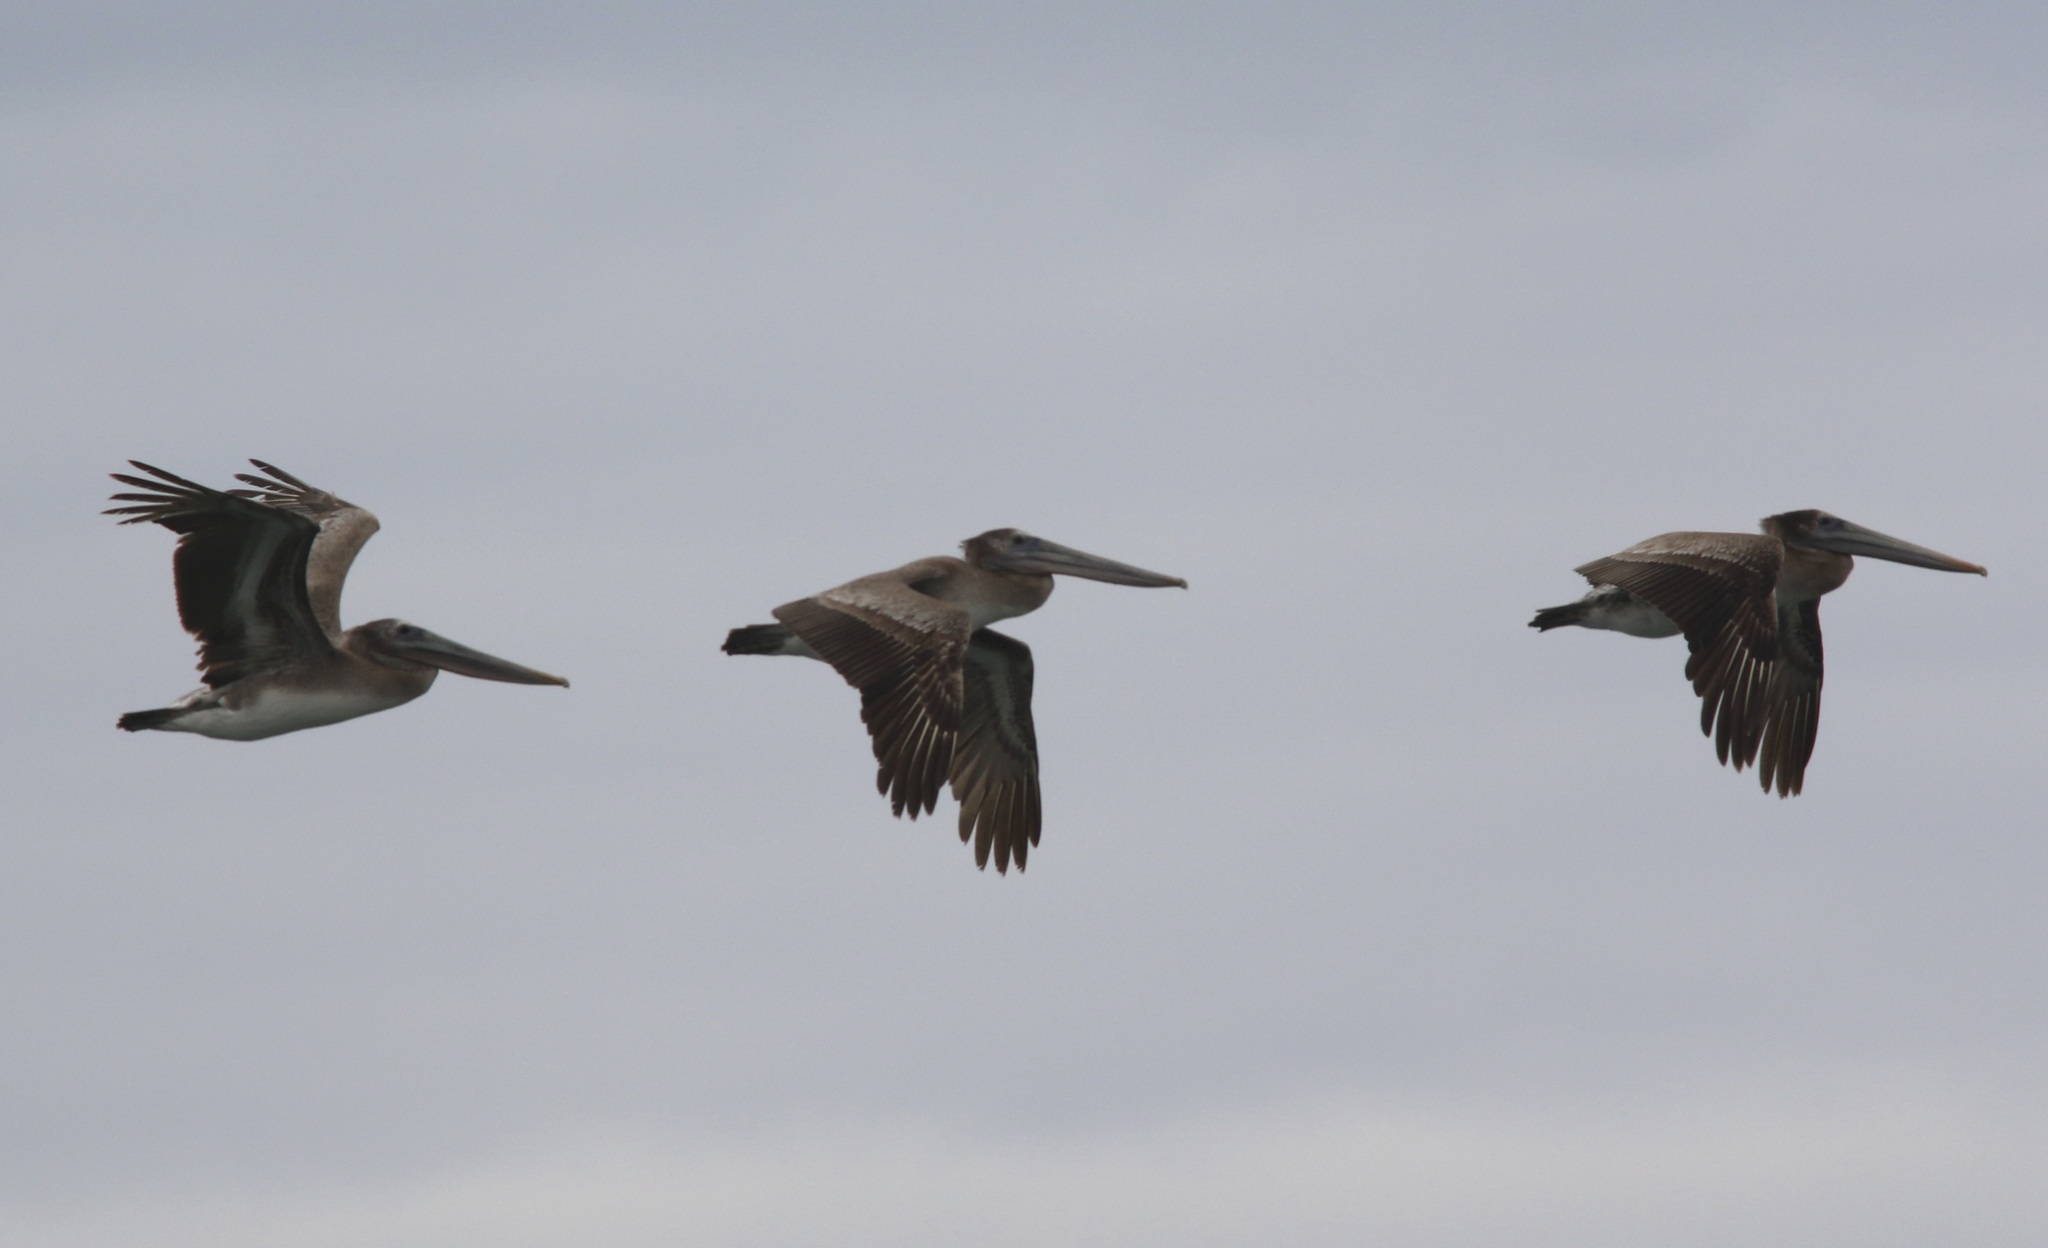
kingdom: Animalia
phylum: Chordata
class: Aves
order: Pelecaniformes
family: Pelecanidae
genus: Pelecanus
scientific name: Pelecanus occidentalis
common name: Brown pelican
